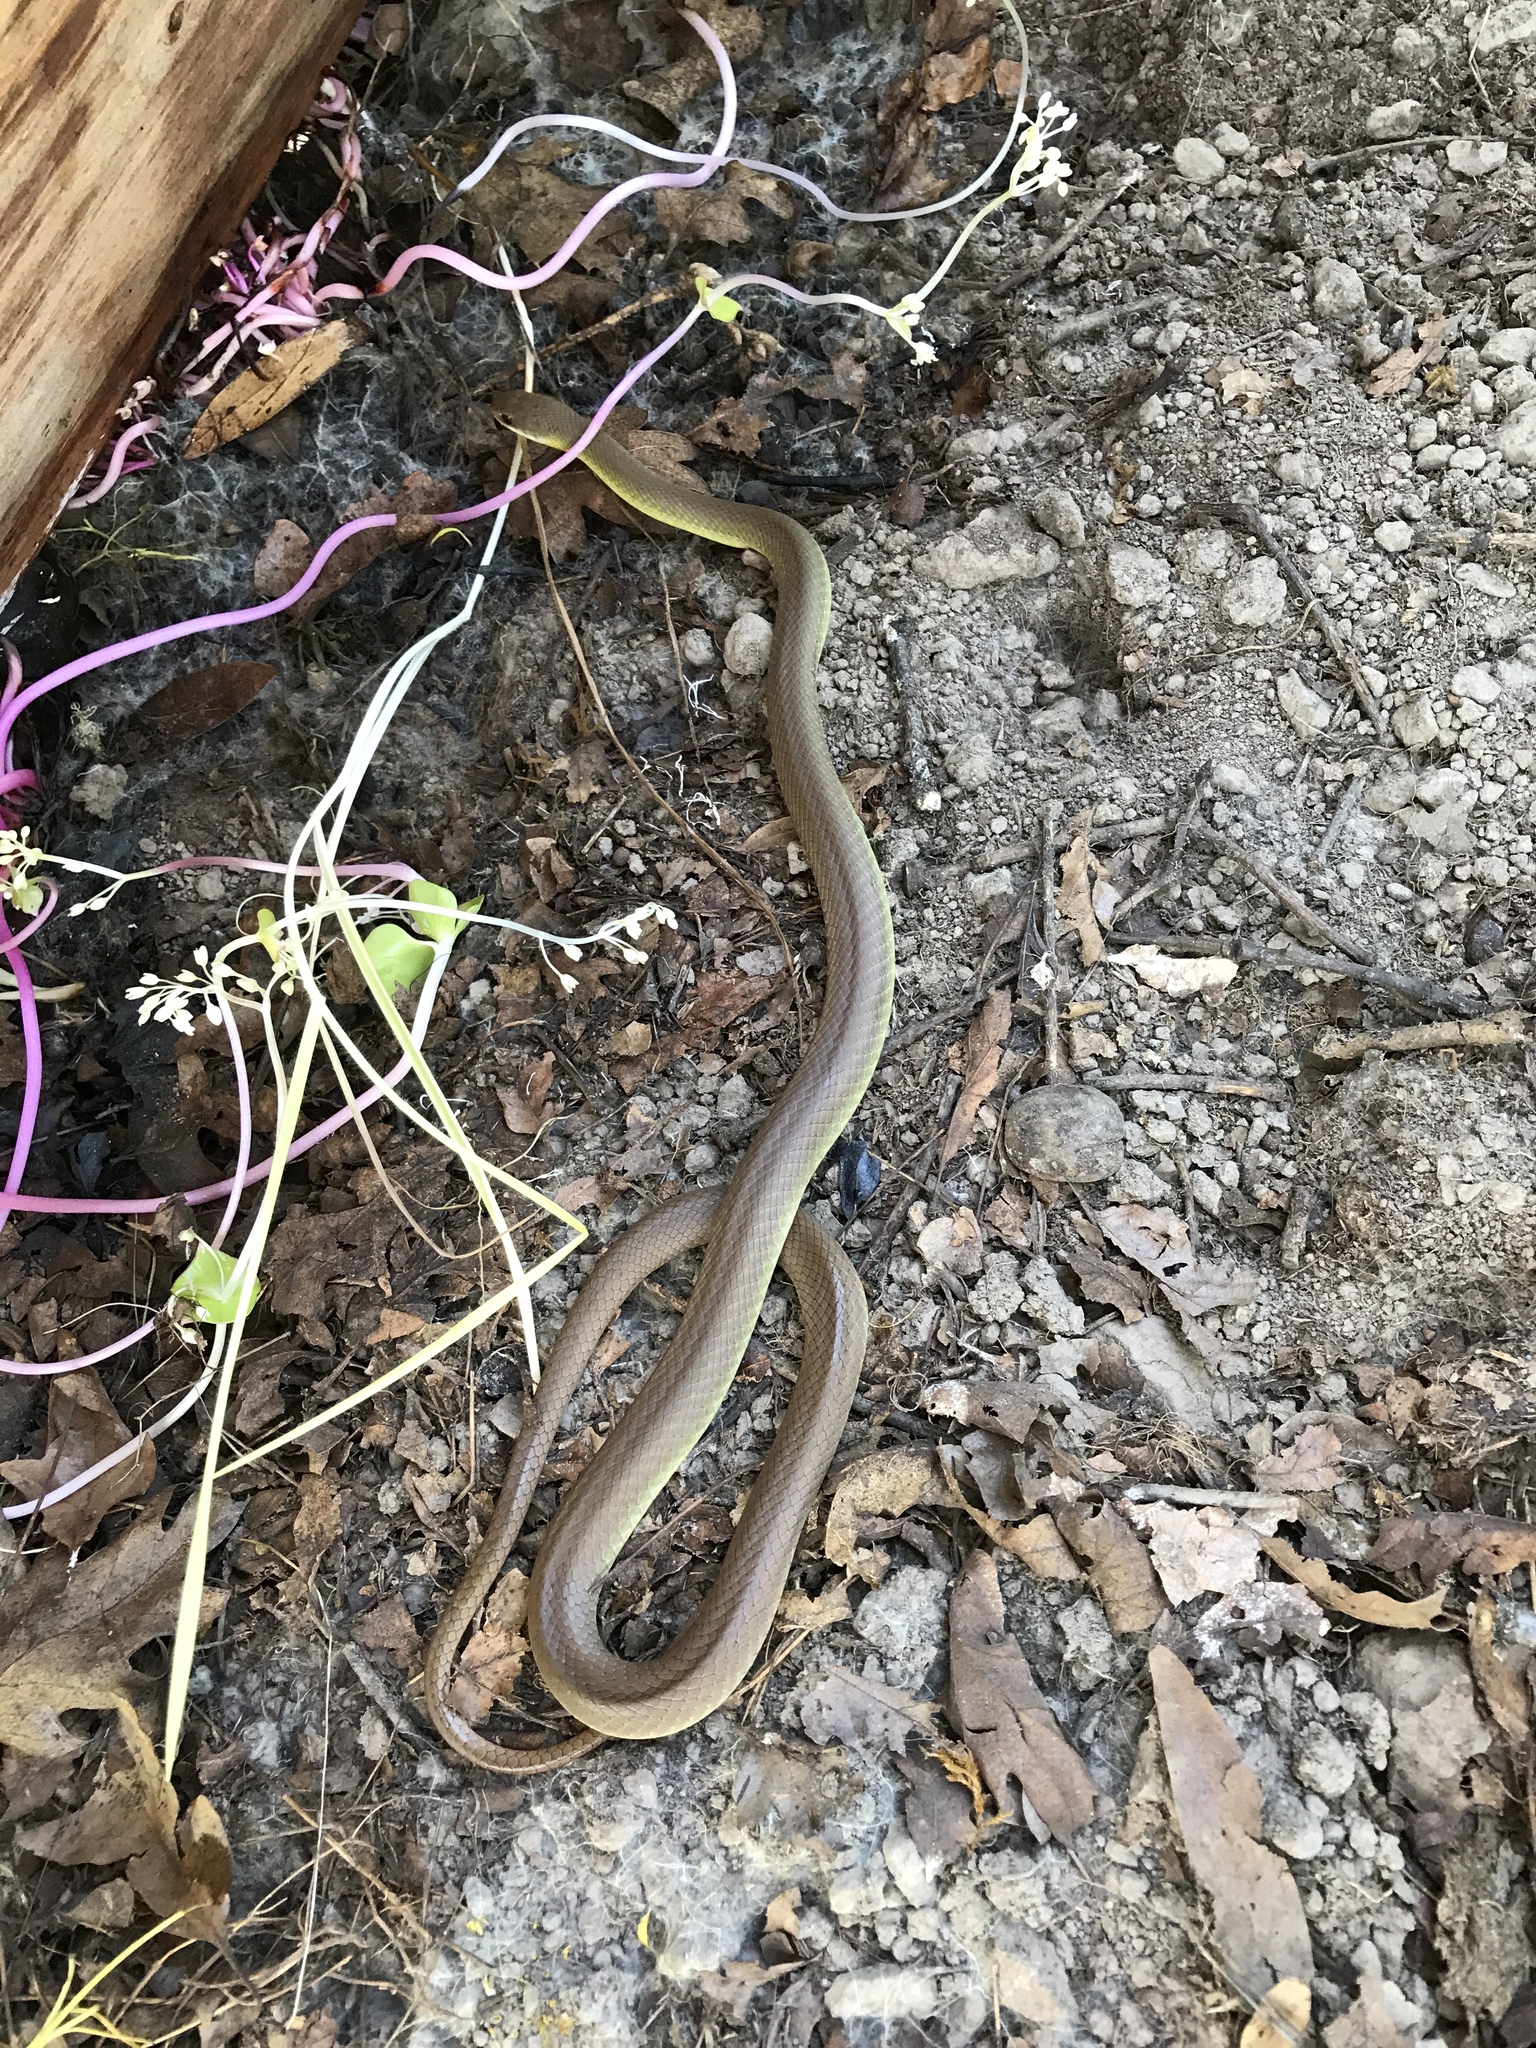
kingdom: Animalia
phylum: Chordata
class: Squamata
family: Colubridae
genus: Coluber
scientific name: Coluber constrictor
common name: Eastern racer
